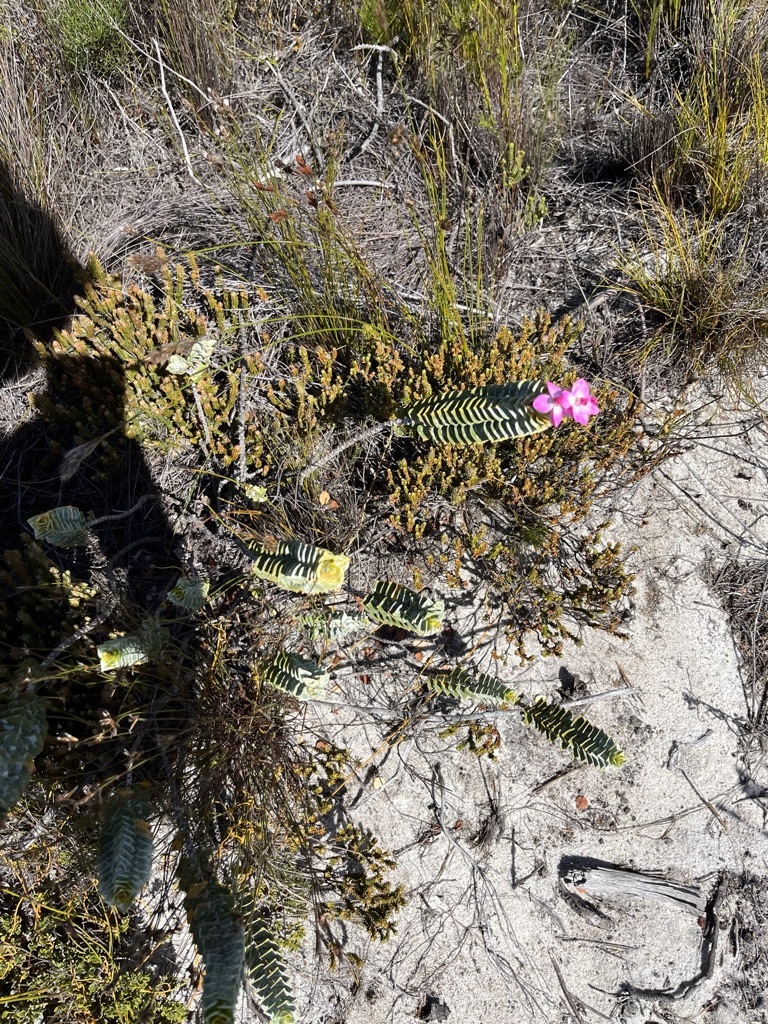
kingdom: Plantae
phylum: Tracheophyta
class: Magnoliopsida
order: Myrtales
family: Penaeaceae
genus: Saltera
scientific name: Saltera sarcocolla
